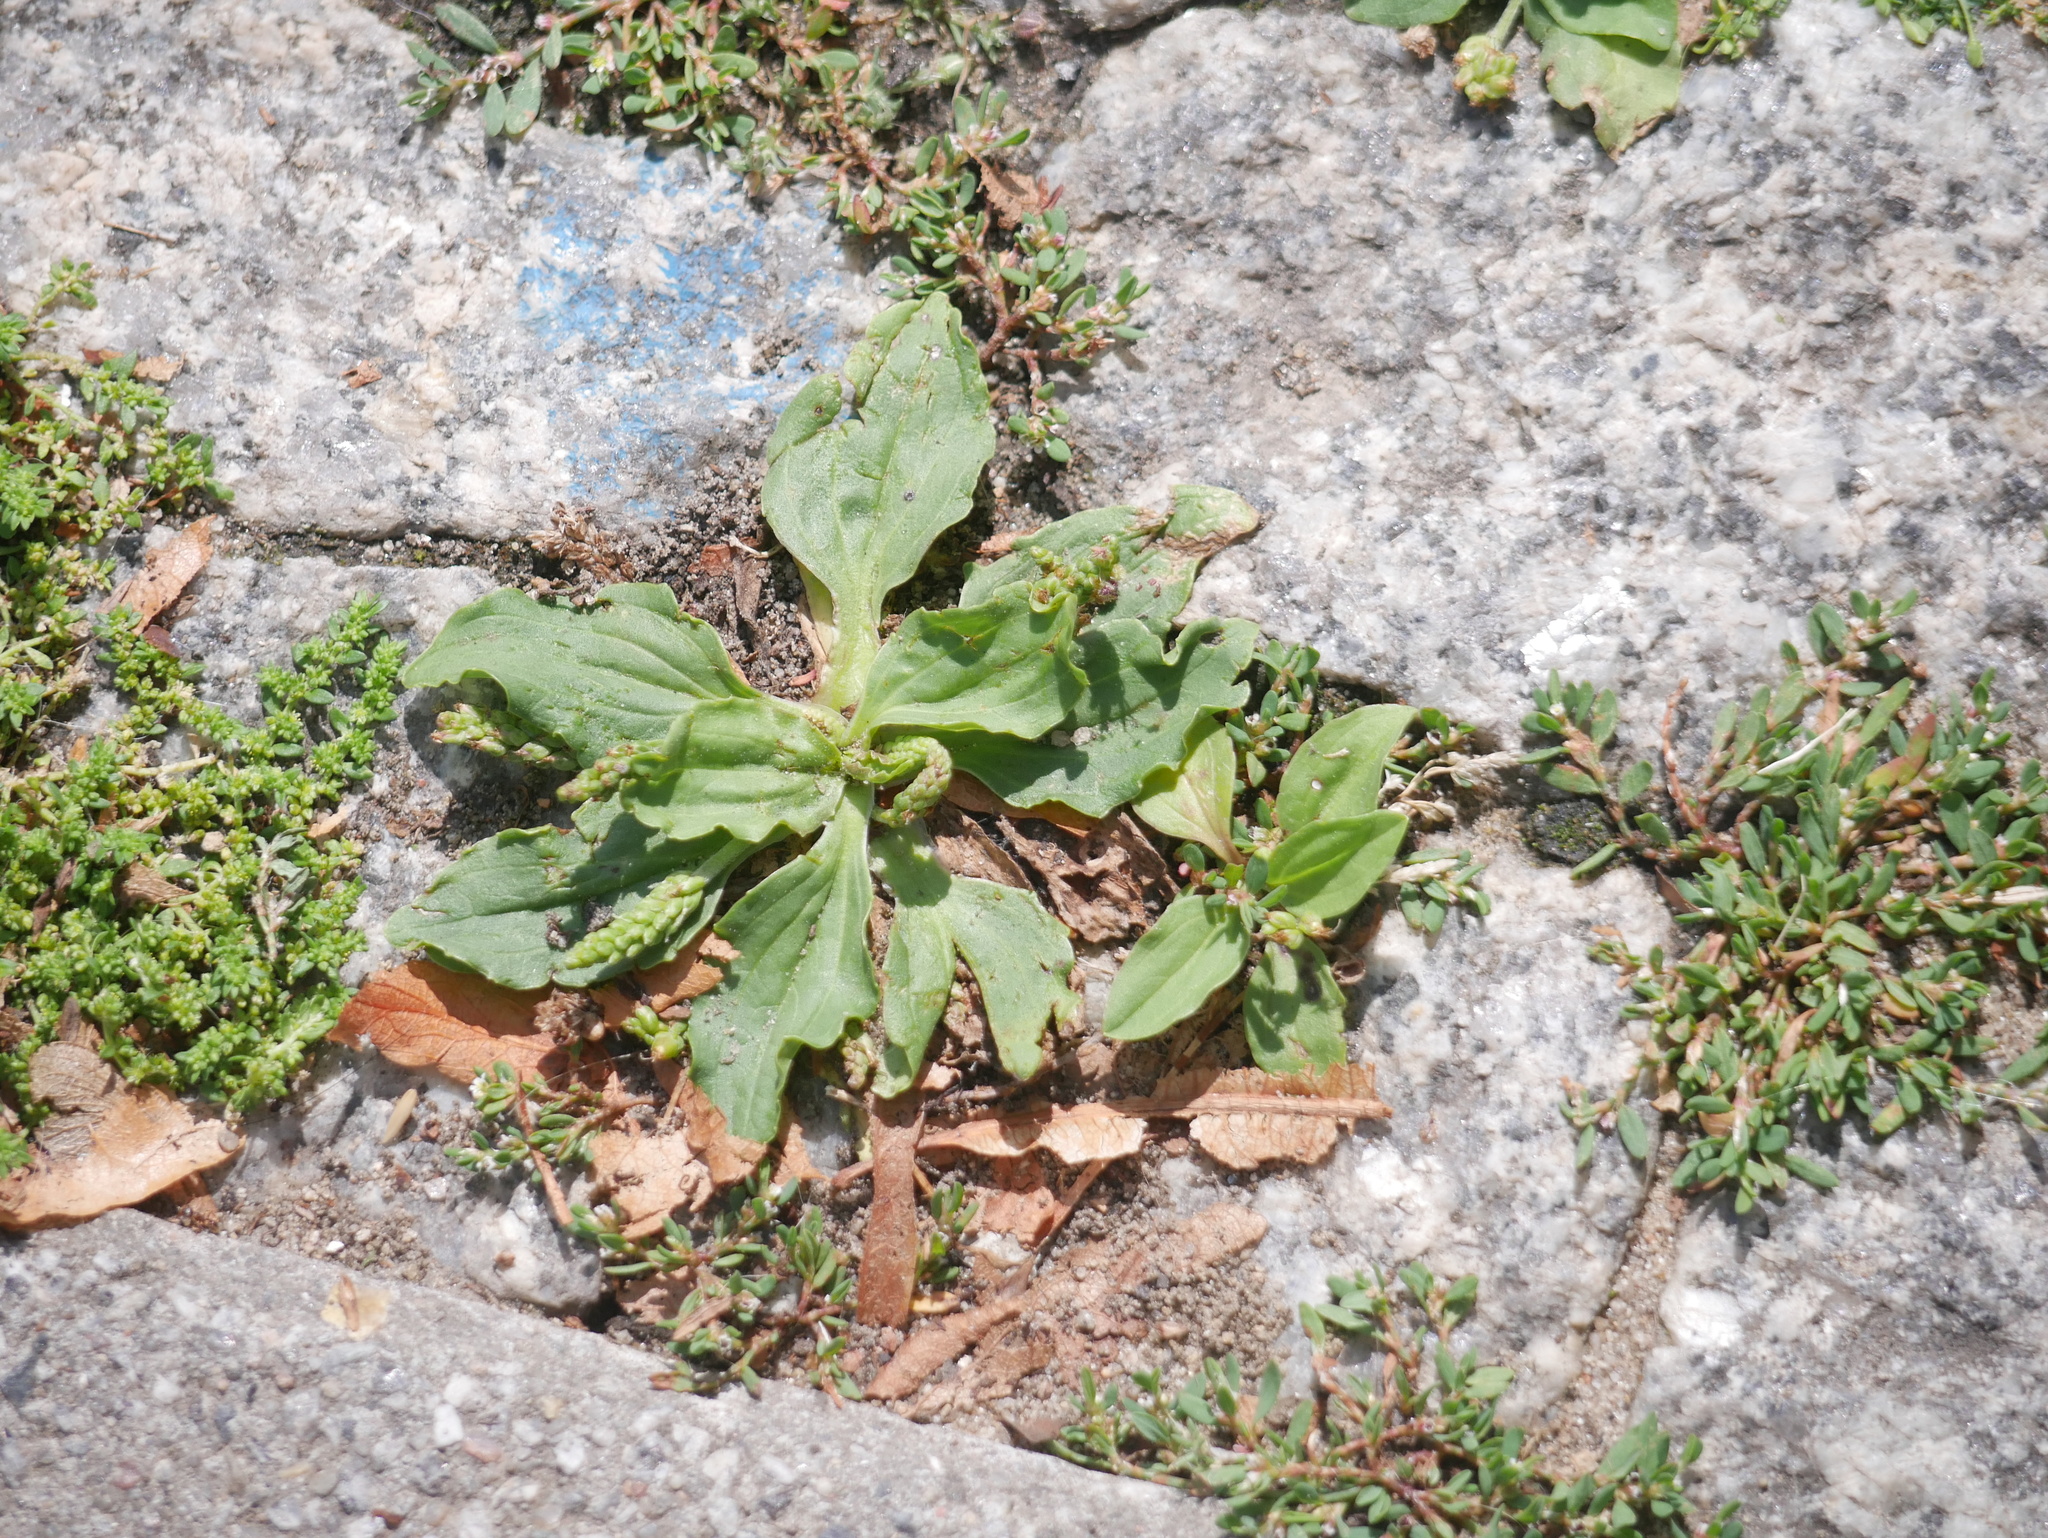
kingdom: Plantae
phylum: Tracheophyta
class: Magnoliopsida
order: Lamiales
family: Plantaginaceae
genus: Plantago
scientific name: Plantago major
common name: Common plantain
